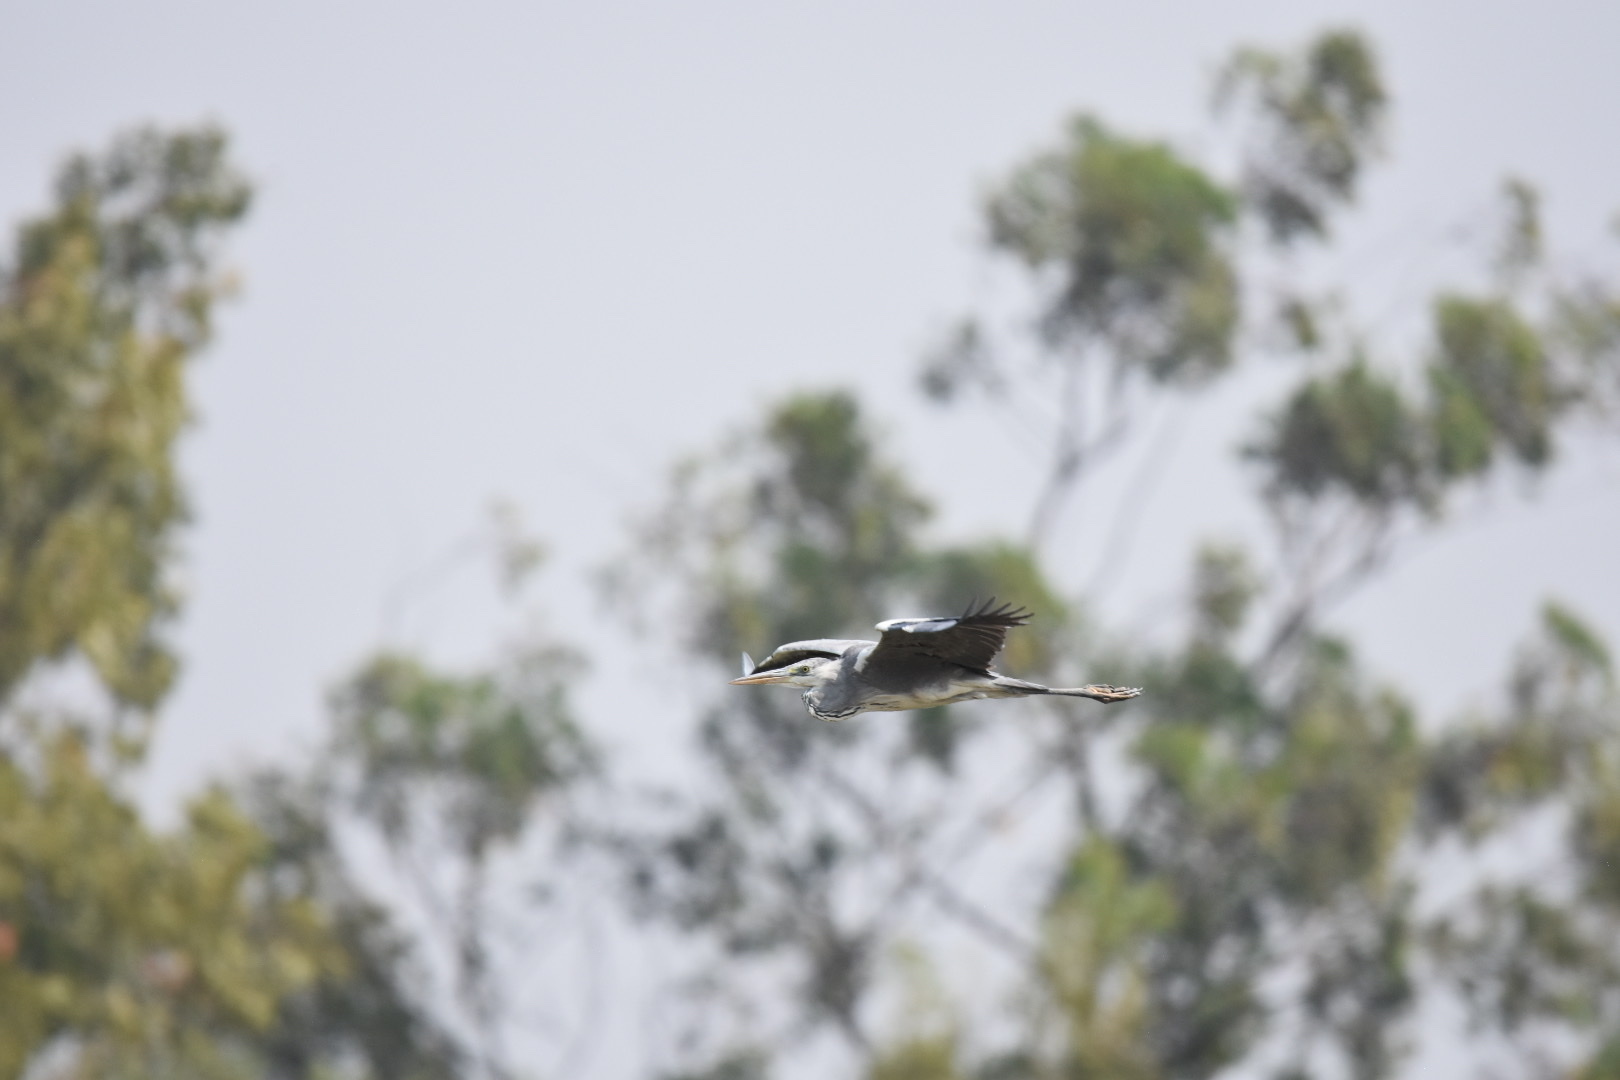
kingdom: Animalia
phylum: Chordata
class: Aves
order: Pelecaniformes
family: Ardeidae
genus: Ardea
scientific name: Ardea cinerea
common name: Grey heron
